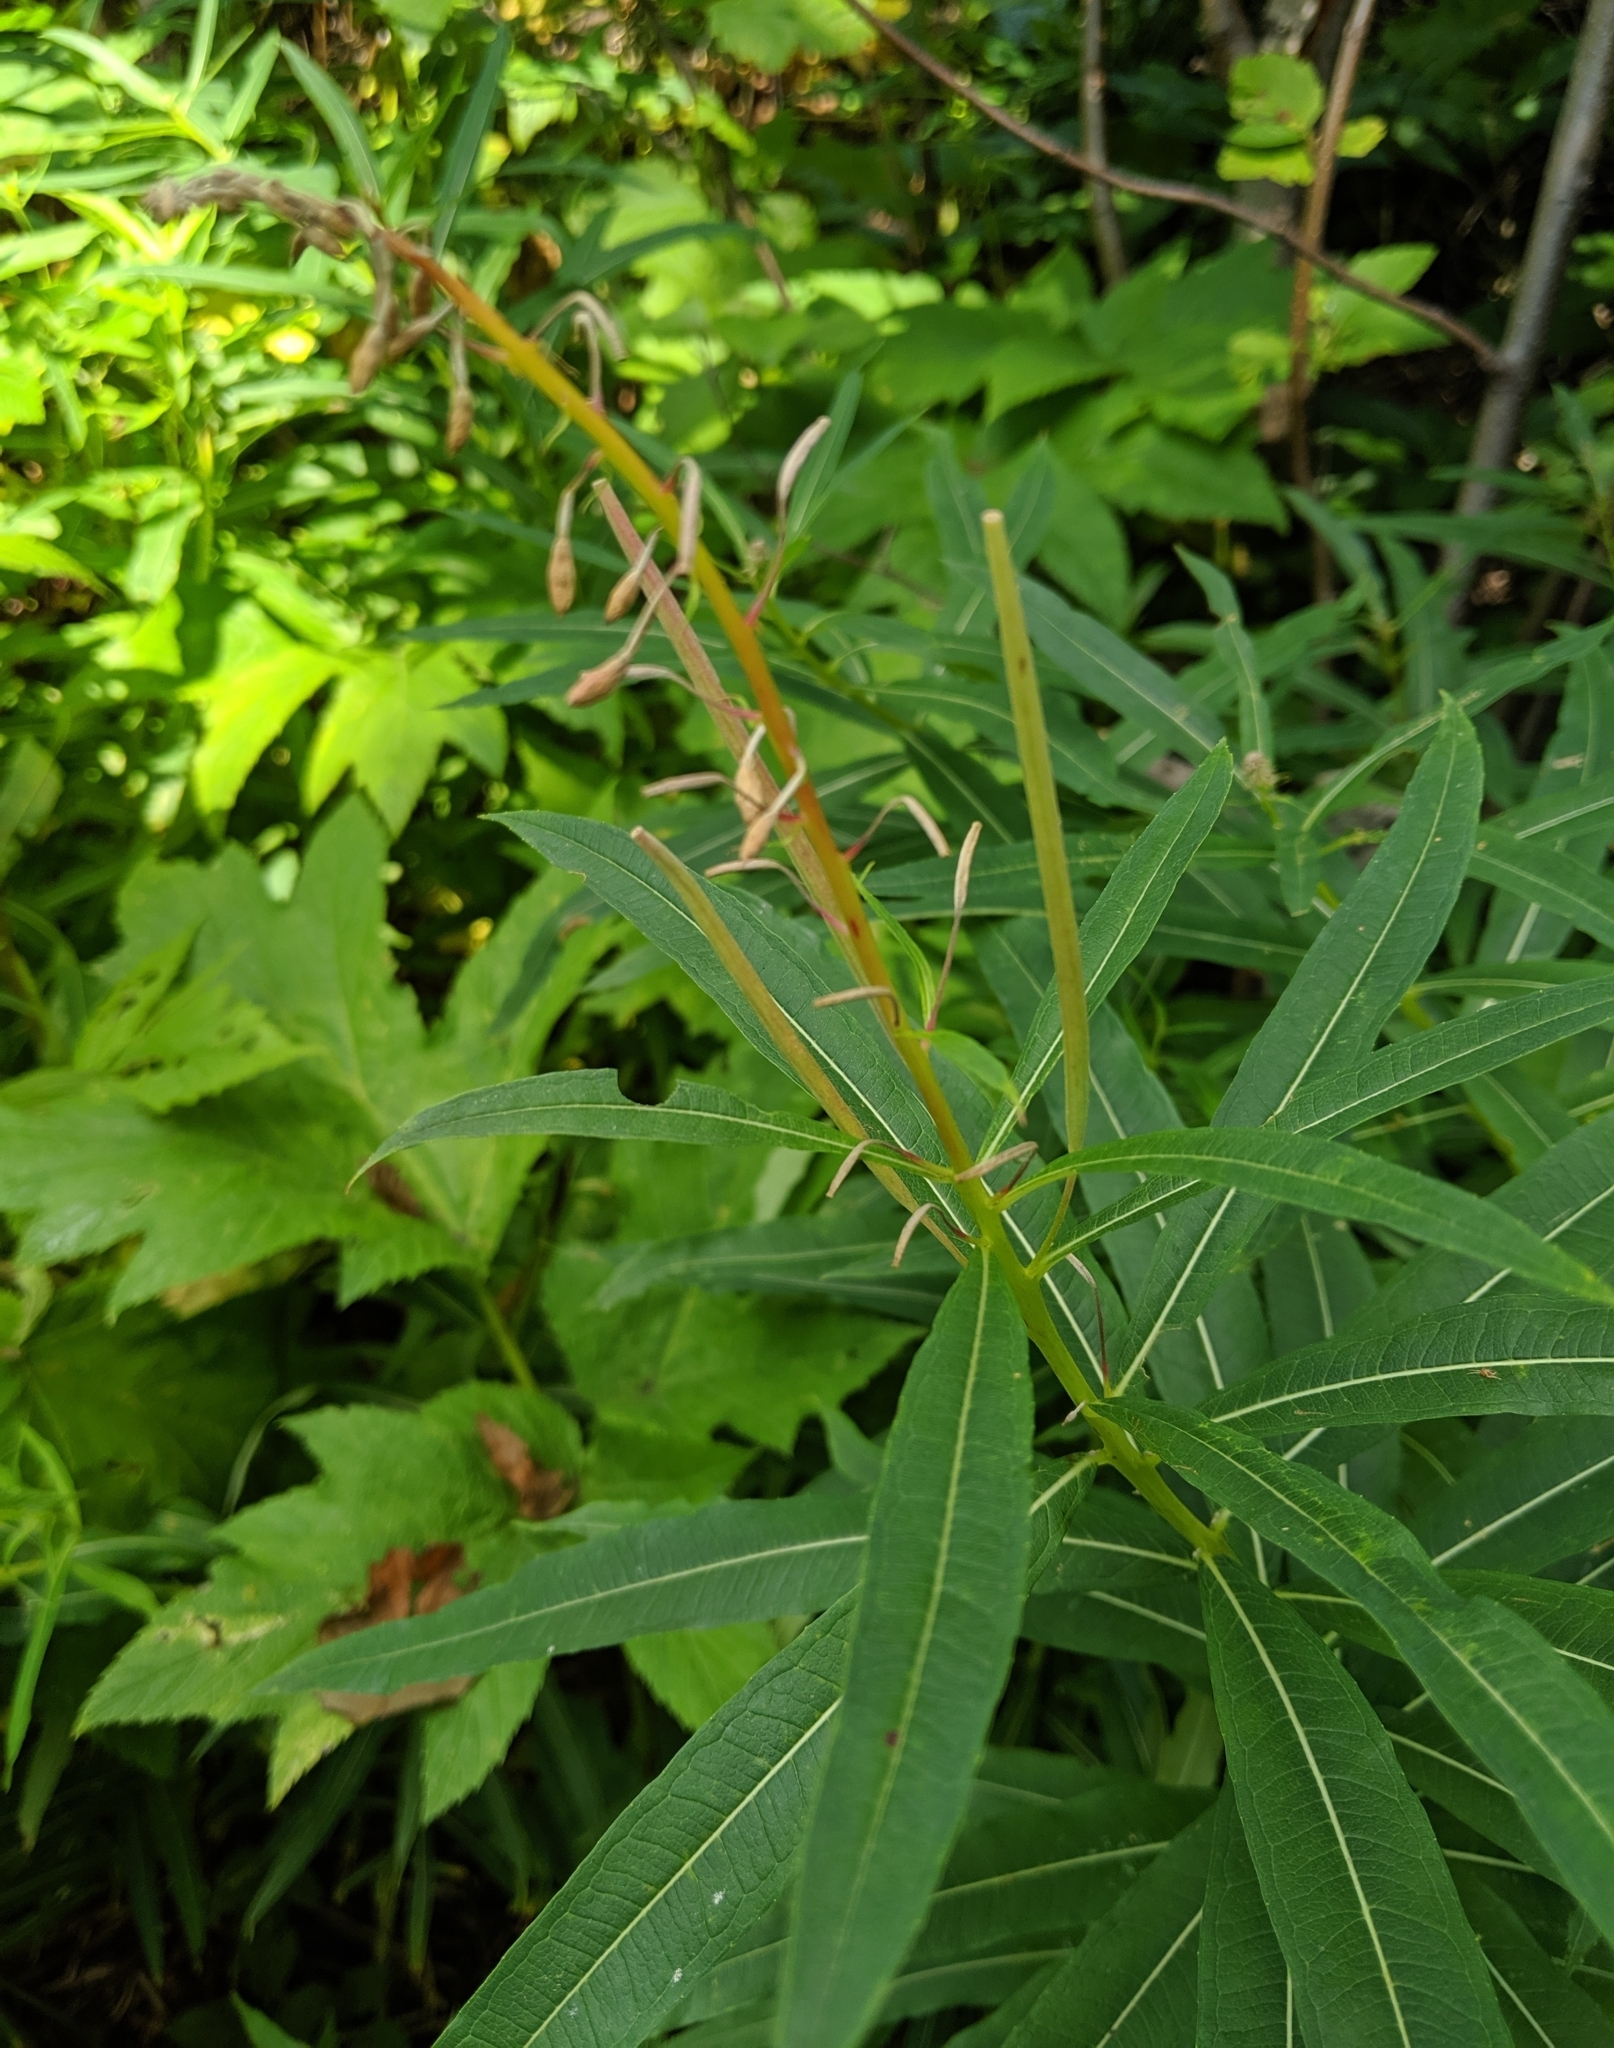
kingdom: Plantae
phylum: Tracheophyta
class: Magnoliopsida
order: Myrtales
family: Onagraceae
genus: Chamaenerion
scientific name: Chamaenerion angustifolium
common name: Fireweed
